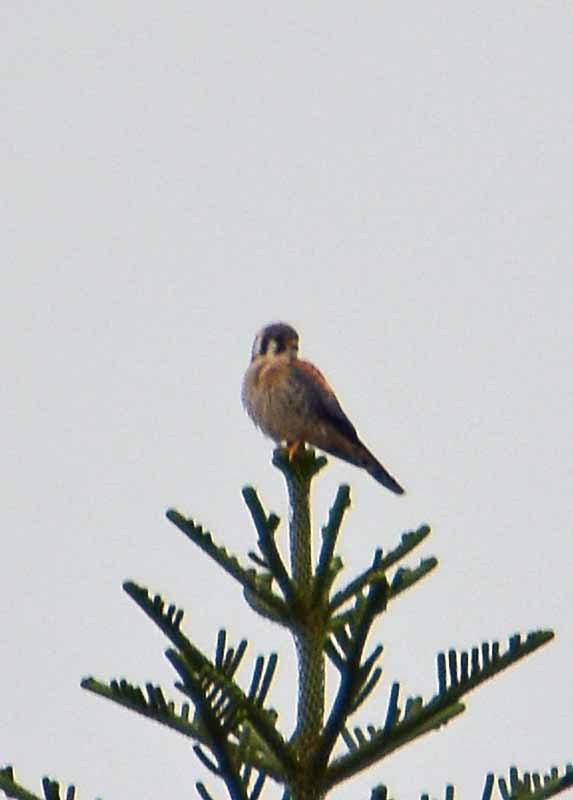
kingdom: Animalia
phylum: Chordata
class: Aves
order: Falconiformes
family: Falconidae
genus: Falco
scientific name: Falco sparverius
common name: American kestrel
